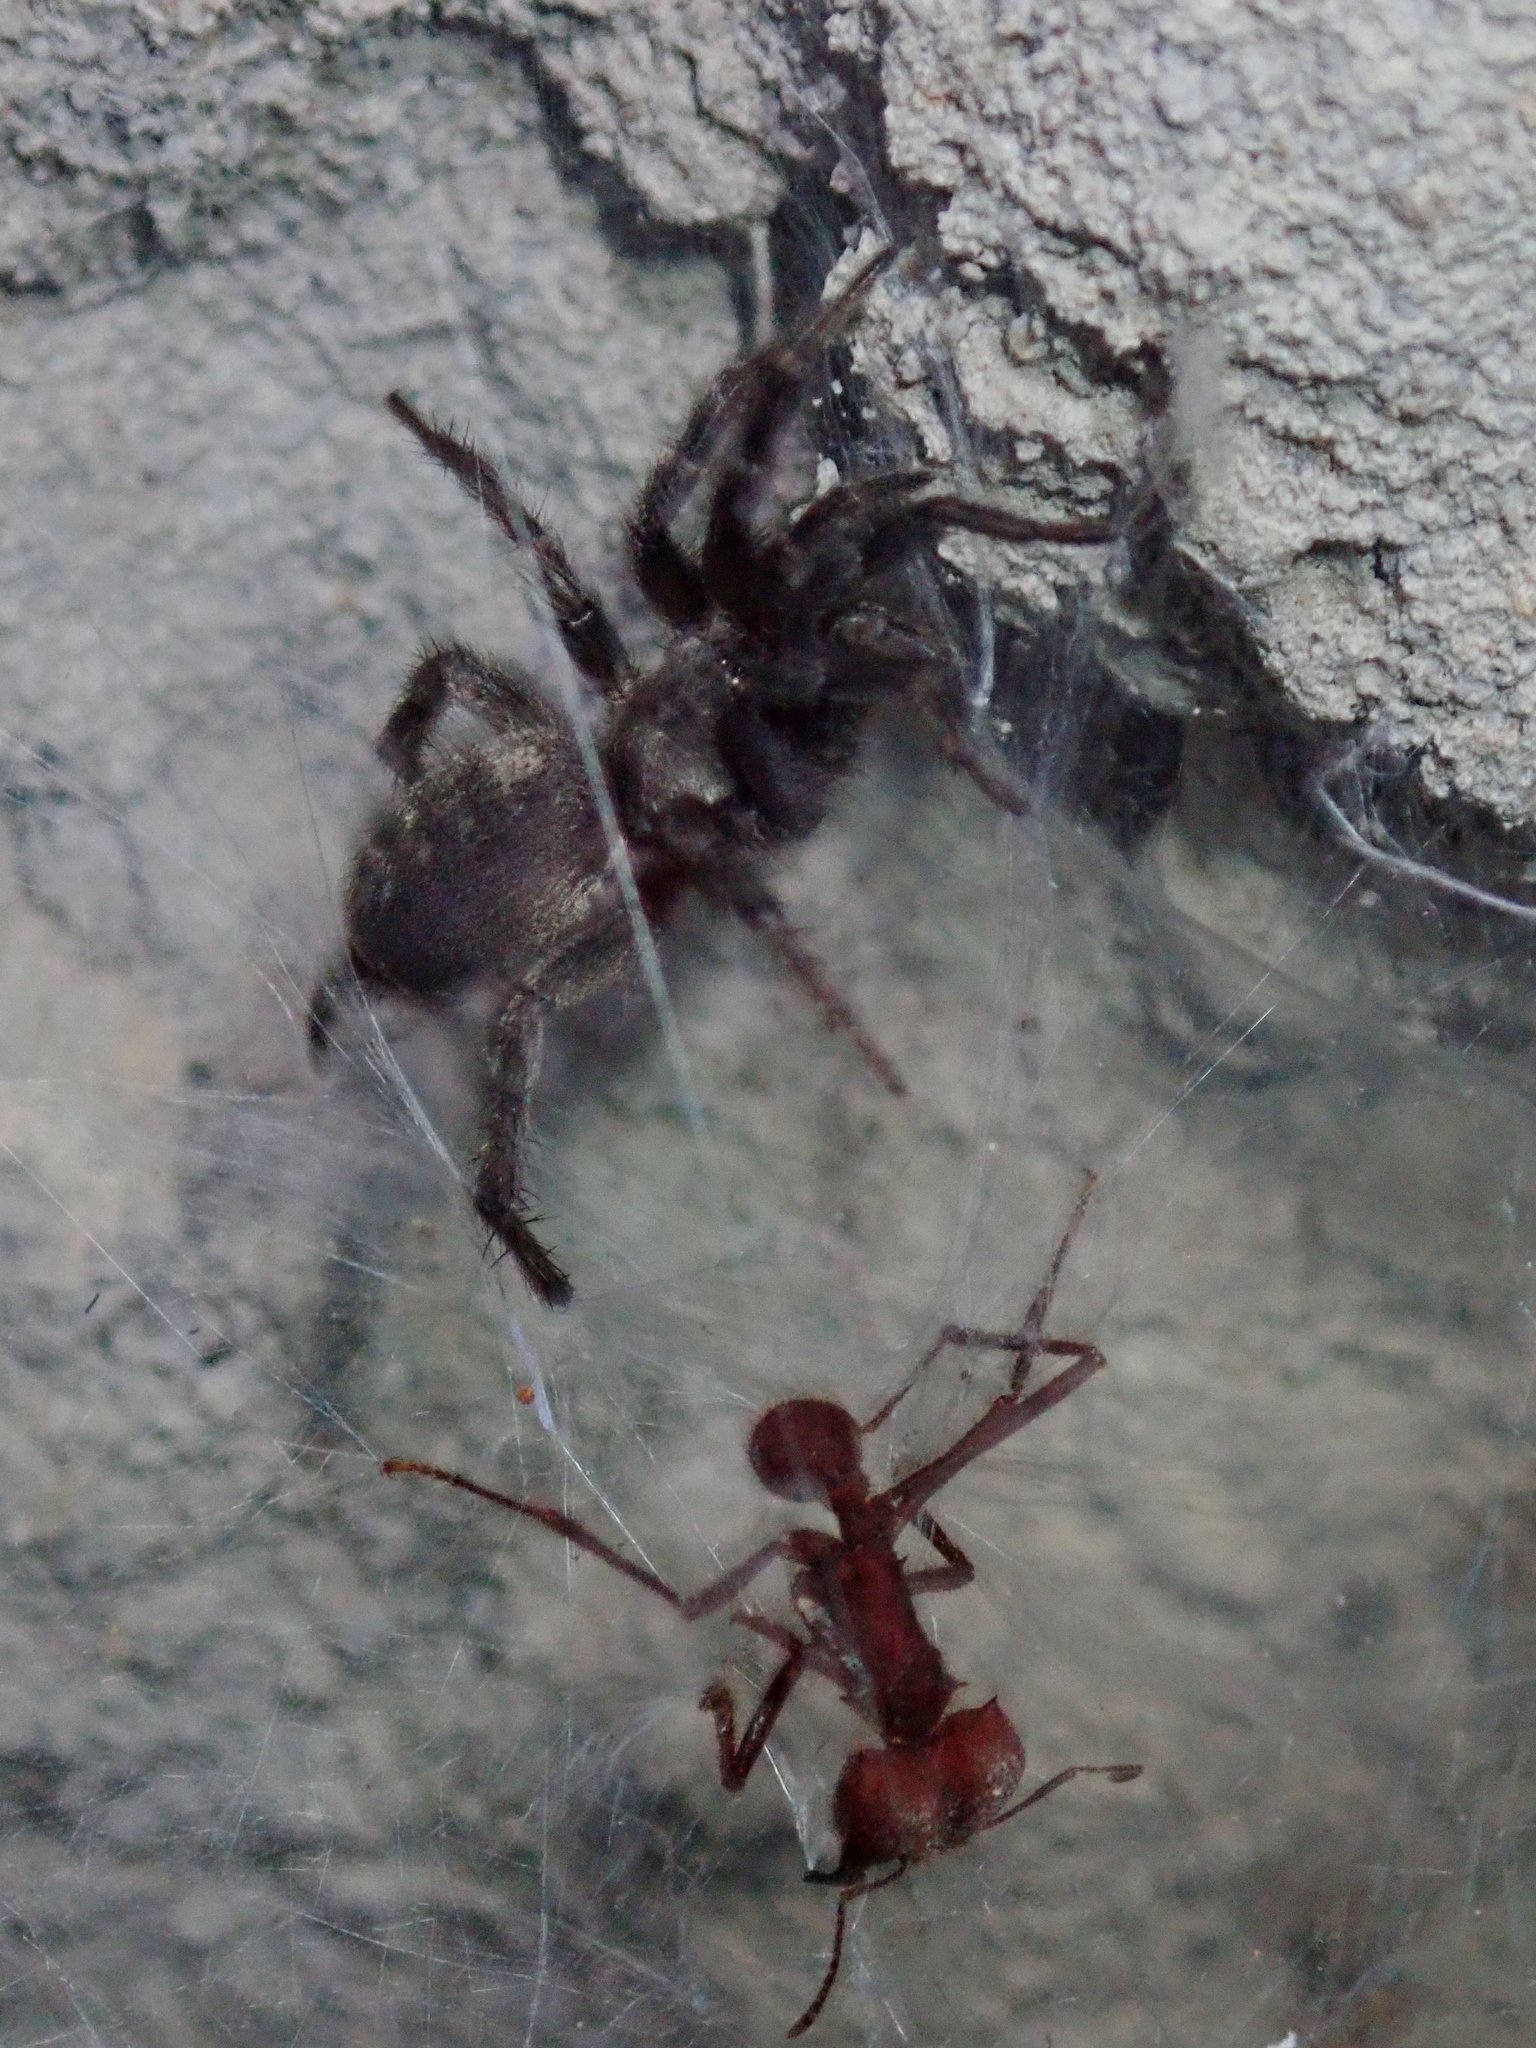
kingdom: Animalia
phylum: Arthropoda
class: Arachnida
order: Araneae
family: Ischnothelidae
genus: Ischnothele
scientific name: Ischnothele annulata
